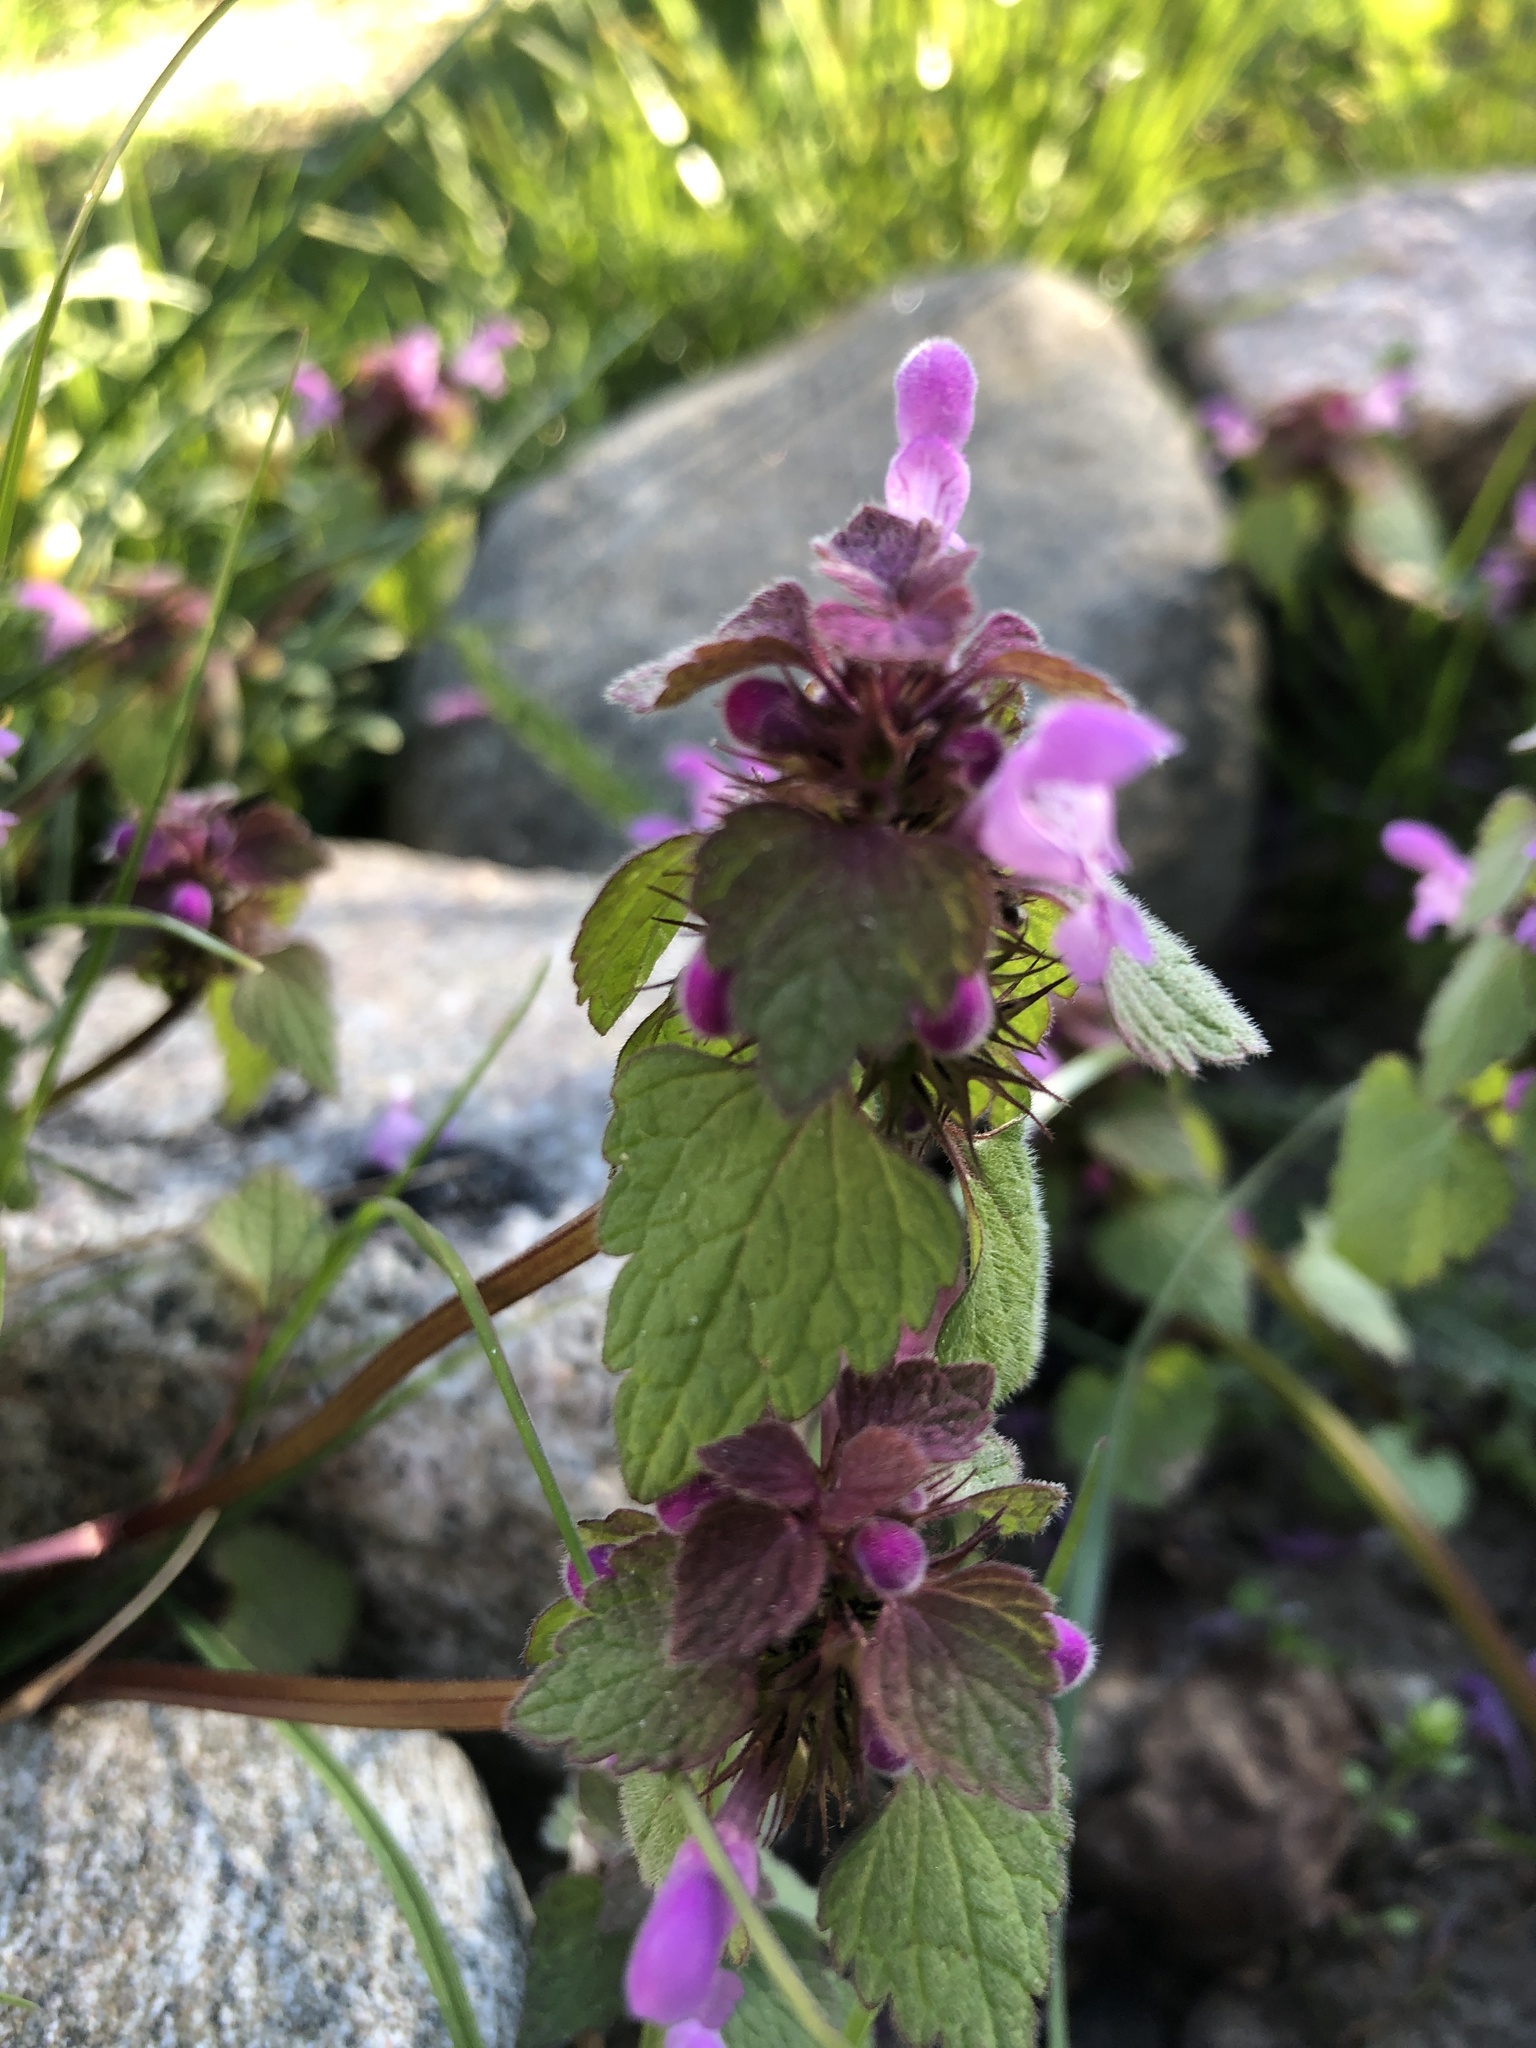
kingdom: Plantae
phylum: Tracheophyta
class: Magnoliopsida
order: Lamiales
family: Lamiaceae
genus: Lamium
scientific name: Lamium purpureum
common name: Red dead-nettle
